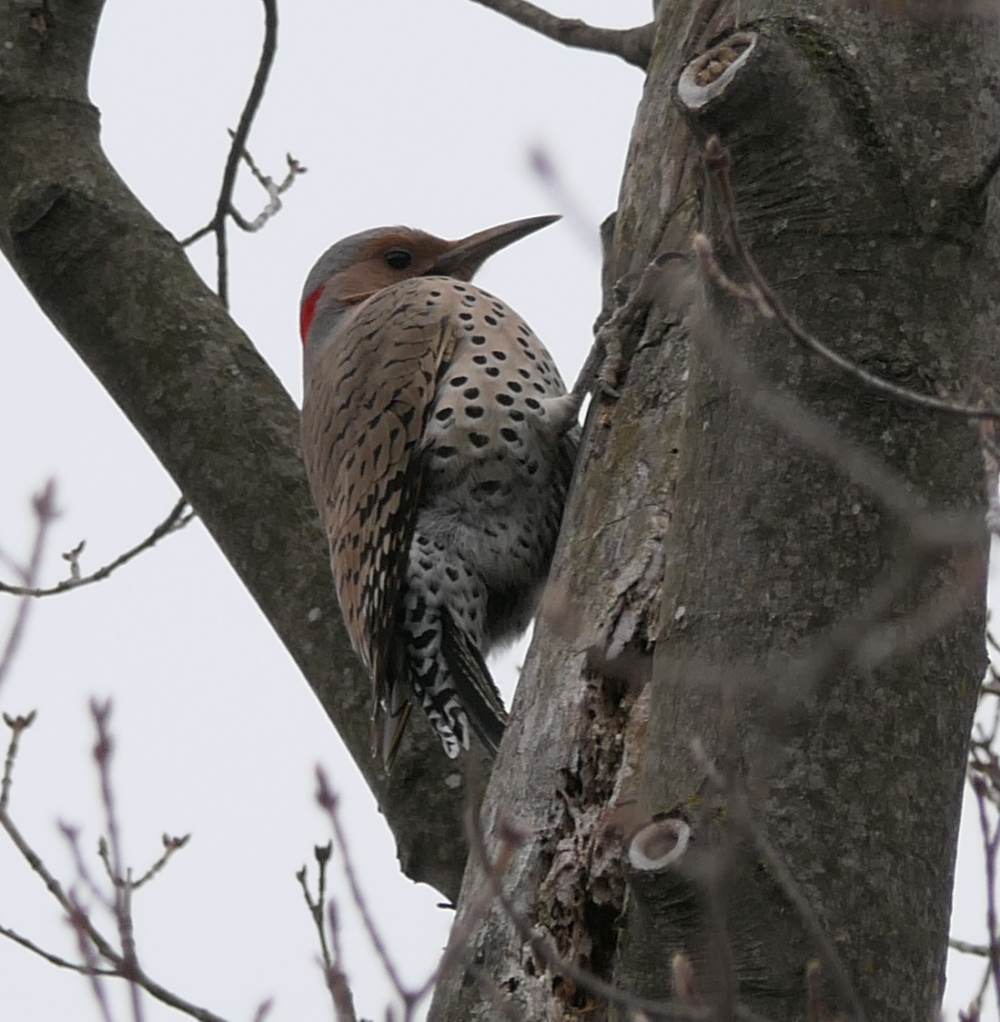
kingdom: Animalia
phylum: Chordata
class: Aves
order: Piciformes
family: Picidae
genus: Colaptes
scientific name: Colaptes auratus
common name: Northern flicker
